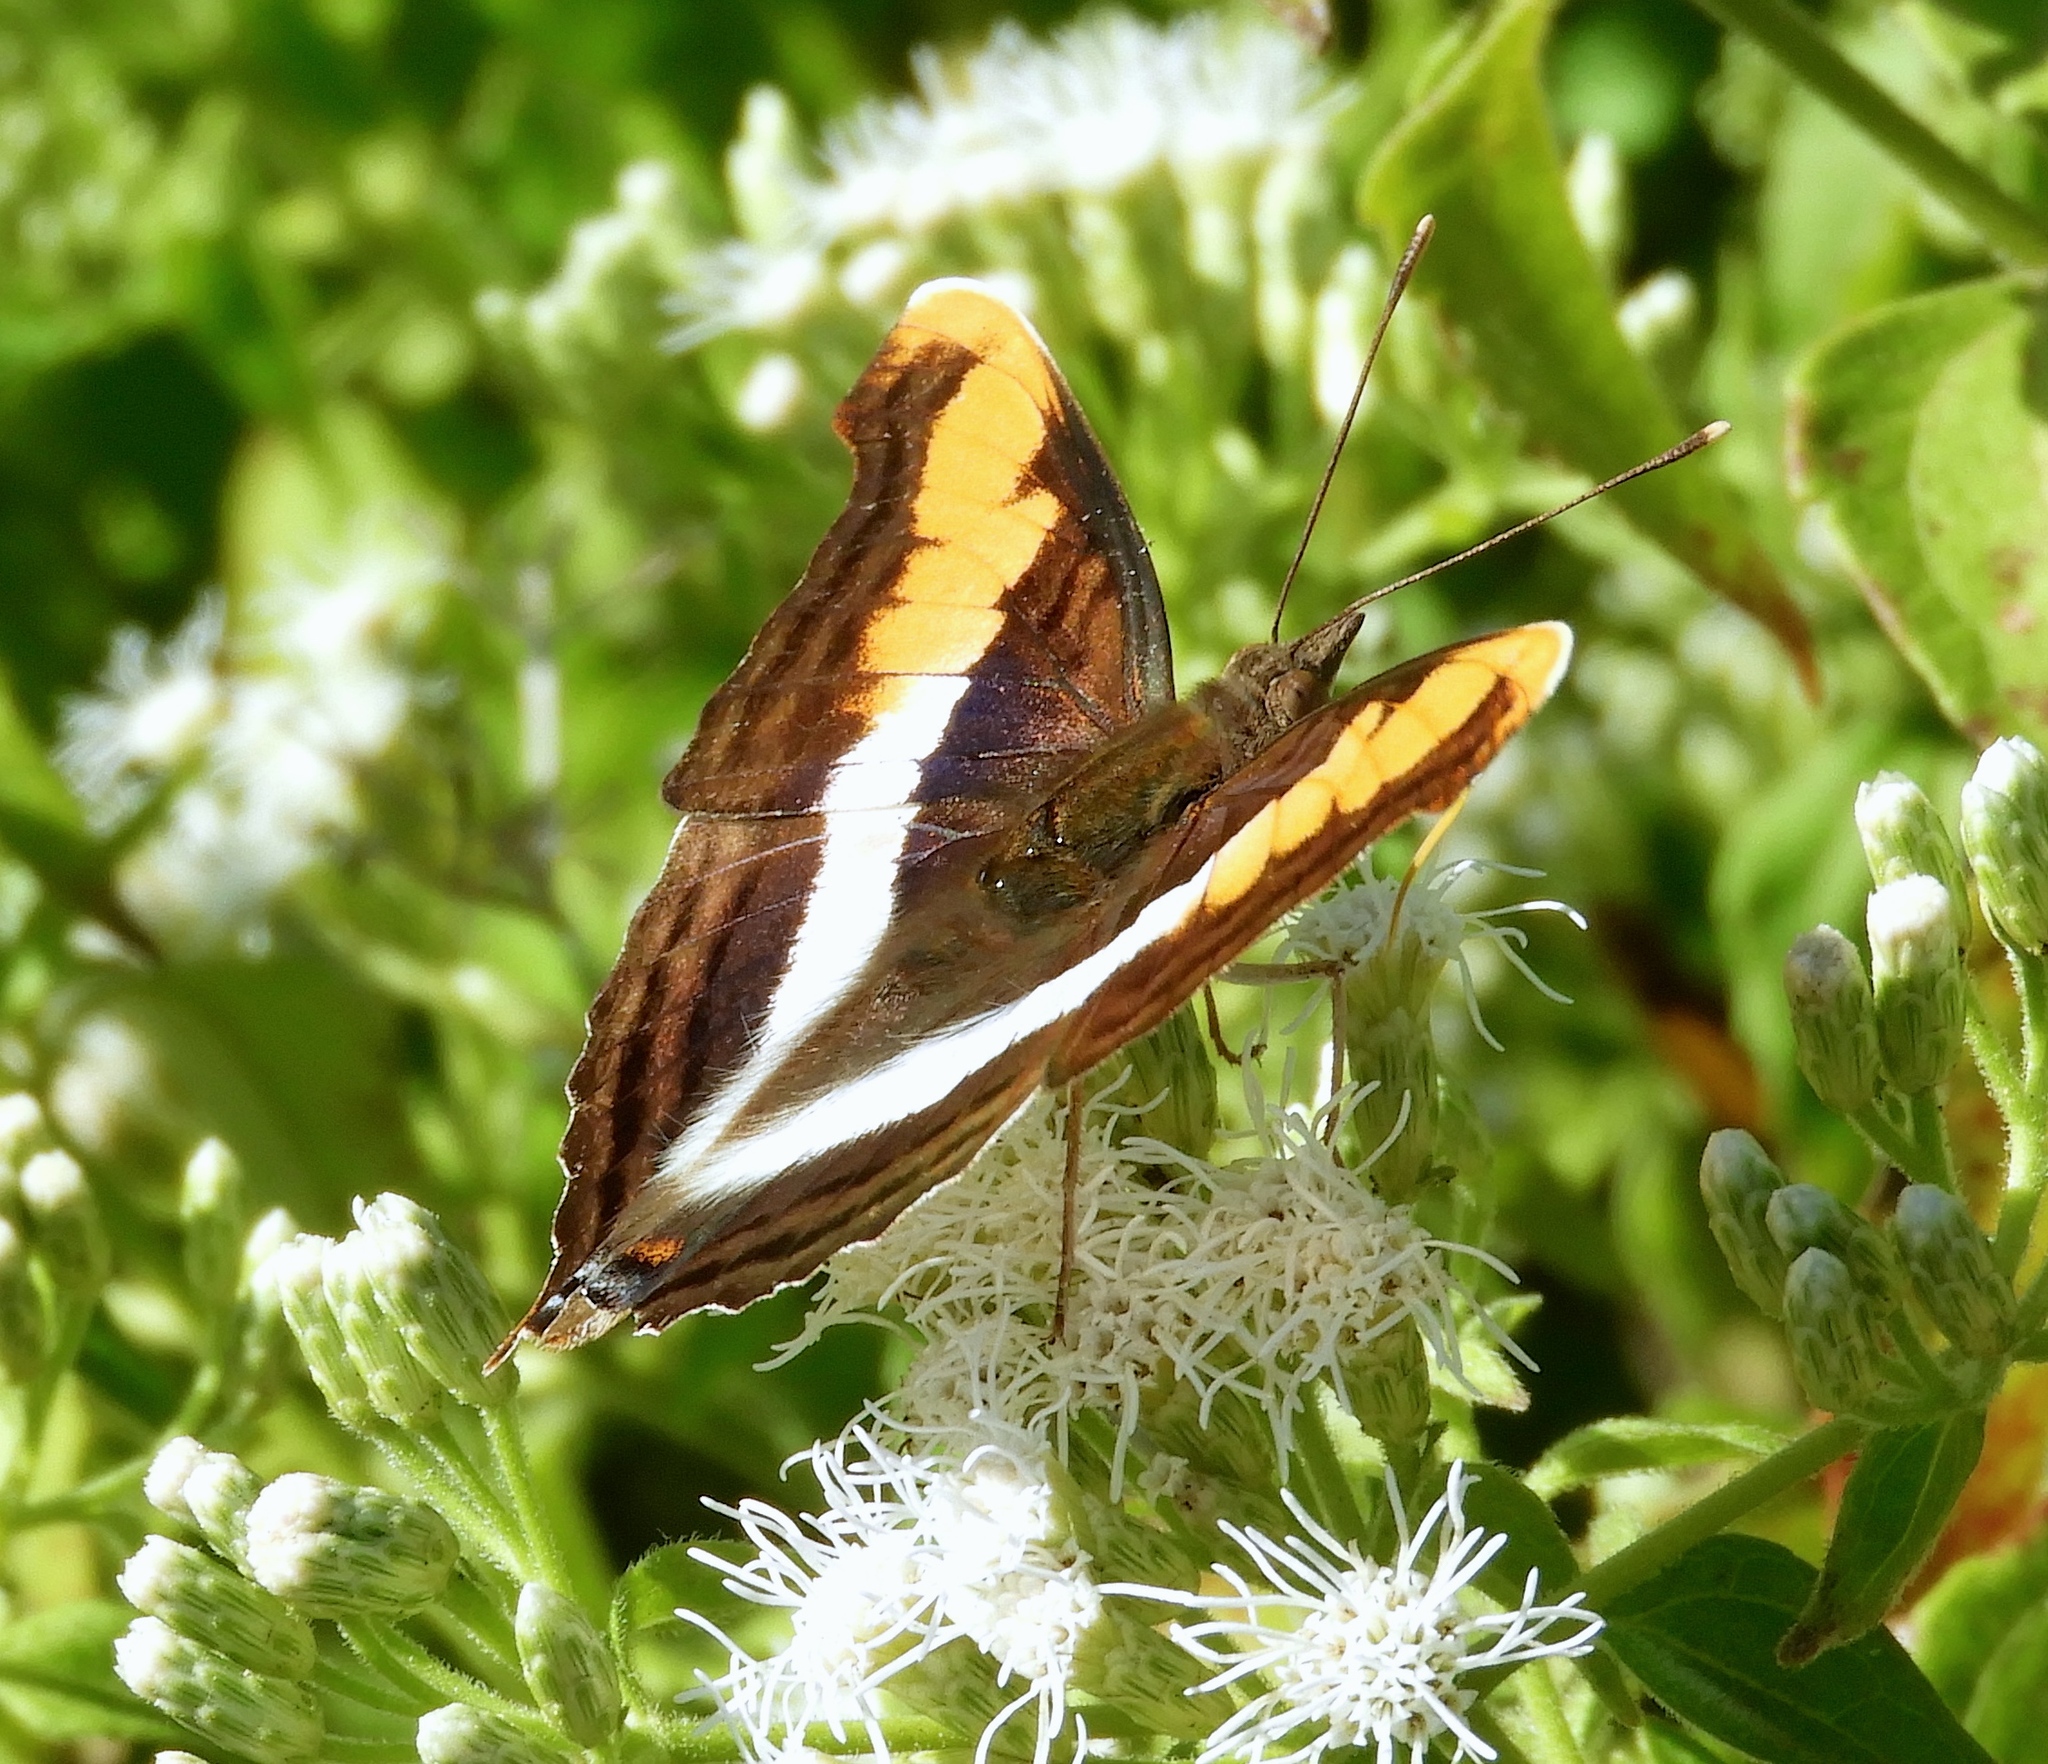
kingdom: Animalia
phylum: Arthropoda
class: Insecta
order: Lepidoptera
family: Nymphalidae
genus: Doxocopa
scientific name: Doxocopa laure
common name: Silver emperor
